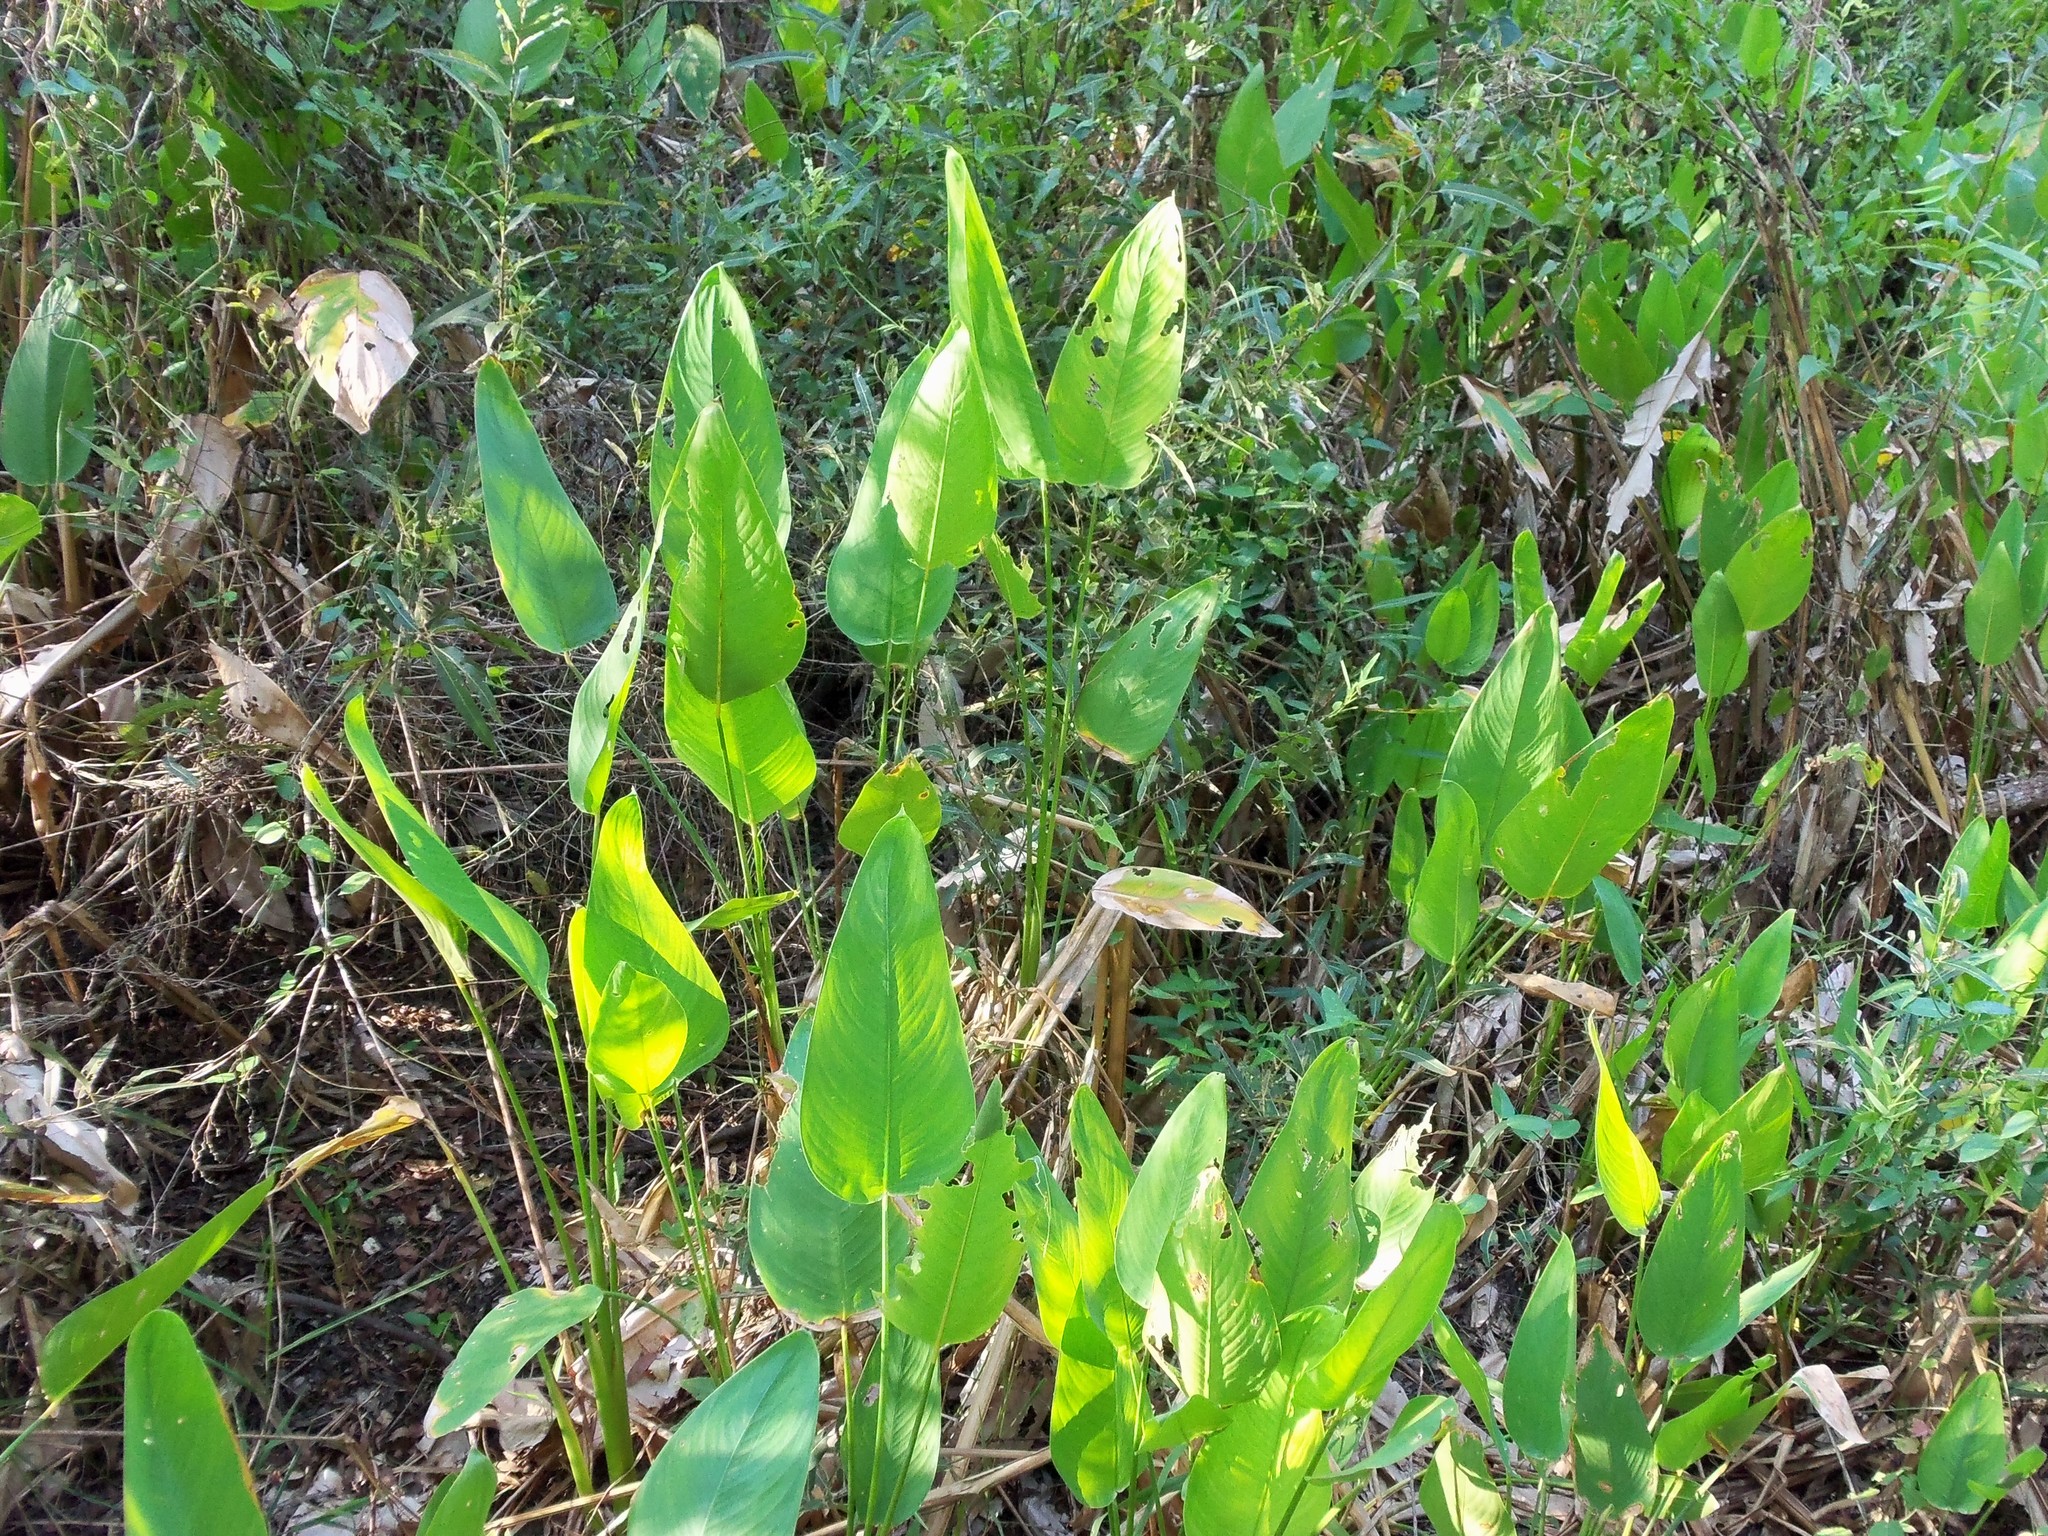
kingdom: Plantae
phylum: Tracheophyta
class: Liliopsida
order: Zingiberales
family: Marantaceae
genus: Thalia
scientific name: Thalia geniculata
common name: Arrowroot
